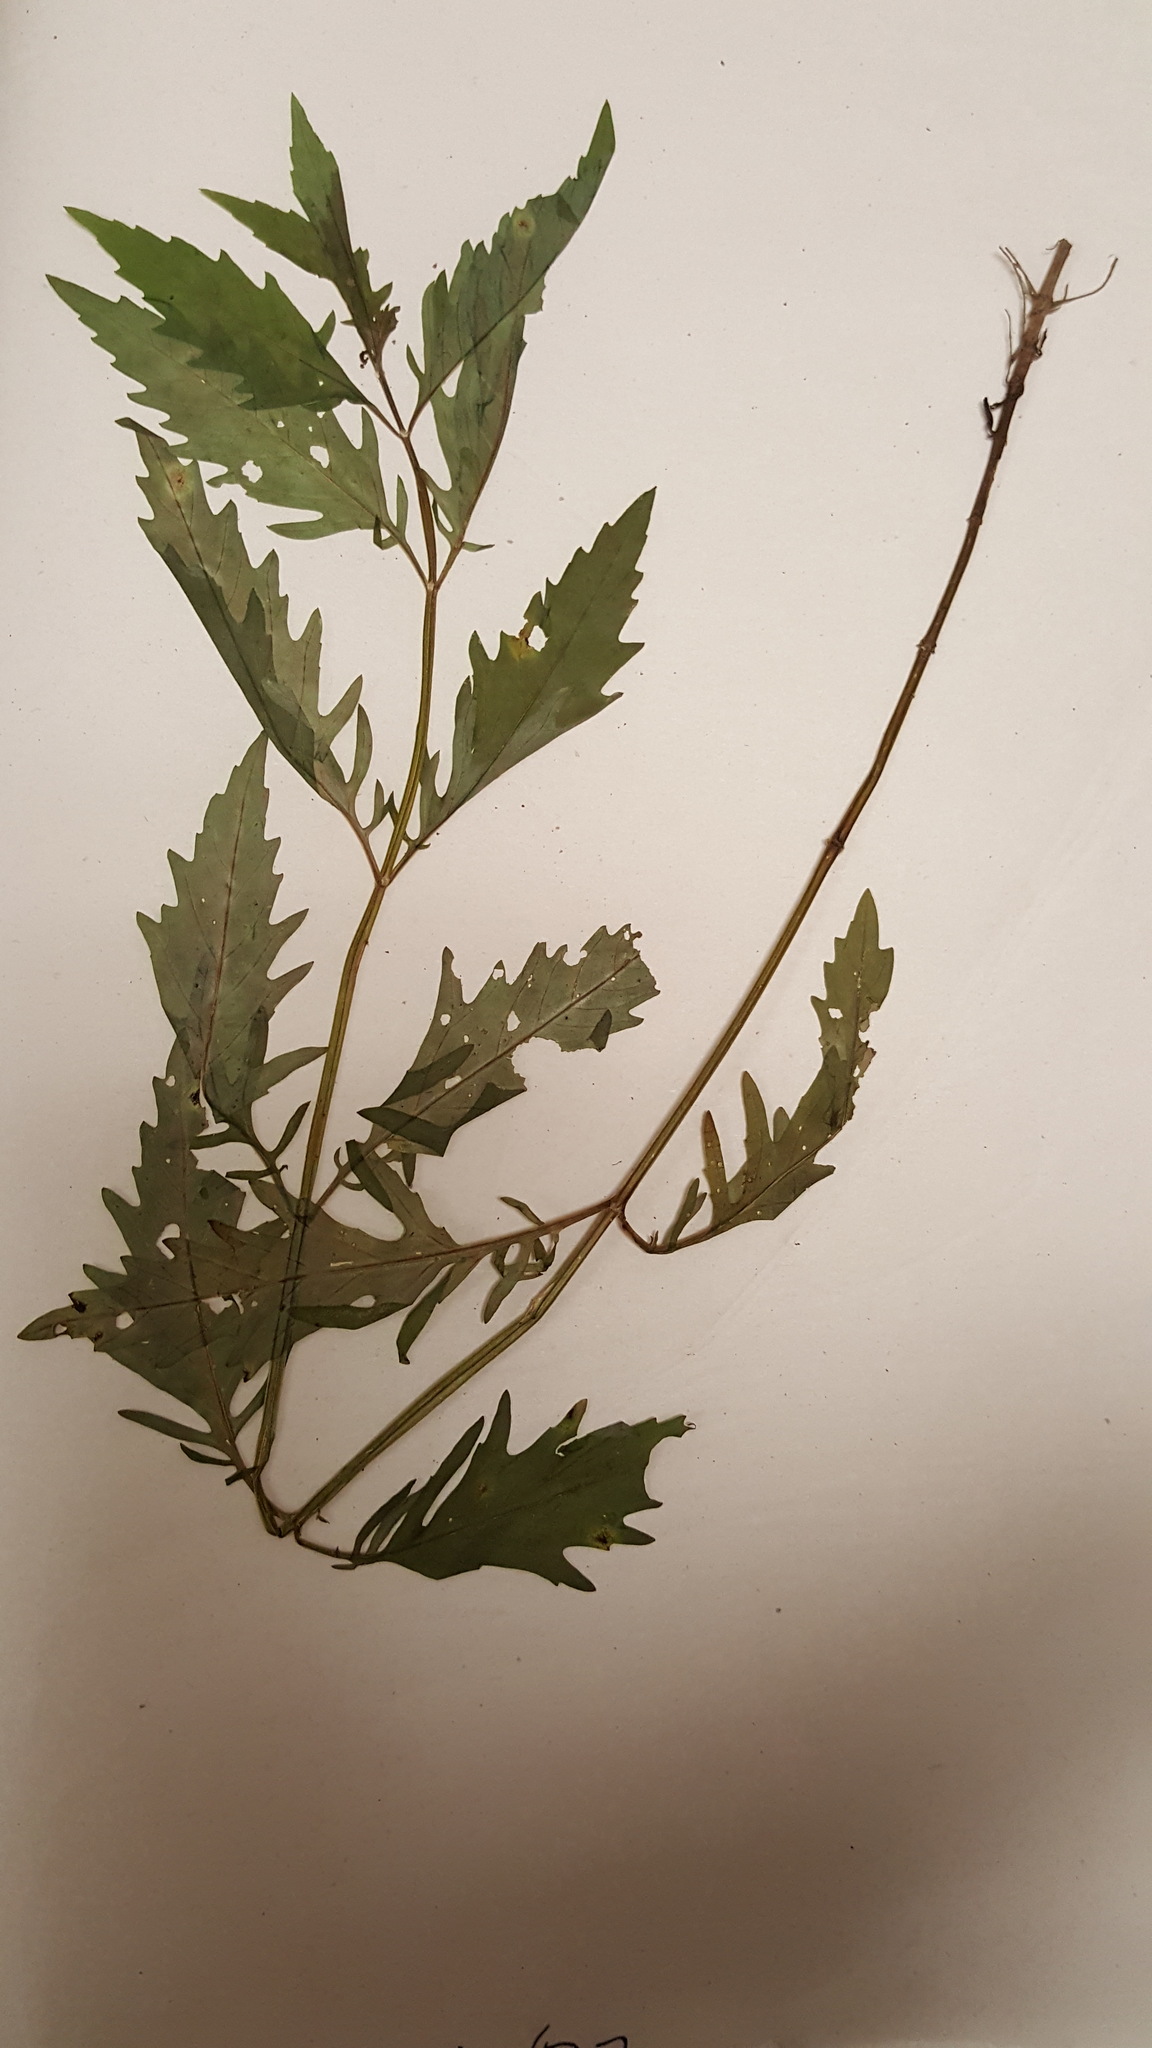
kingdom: Plantae
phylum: Tracheophyta
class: Magnoliopsida
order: Lamiales
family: Lamiaceae
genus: Lycopus
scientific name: Lycopus americanus
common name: American bugleweed
